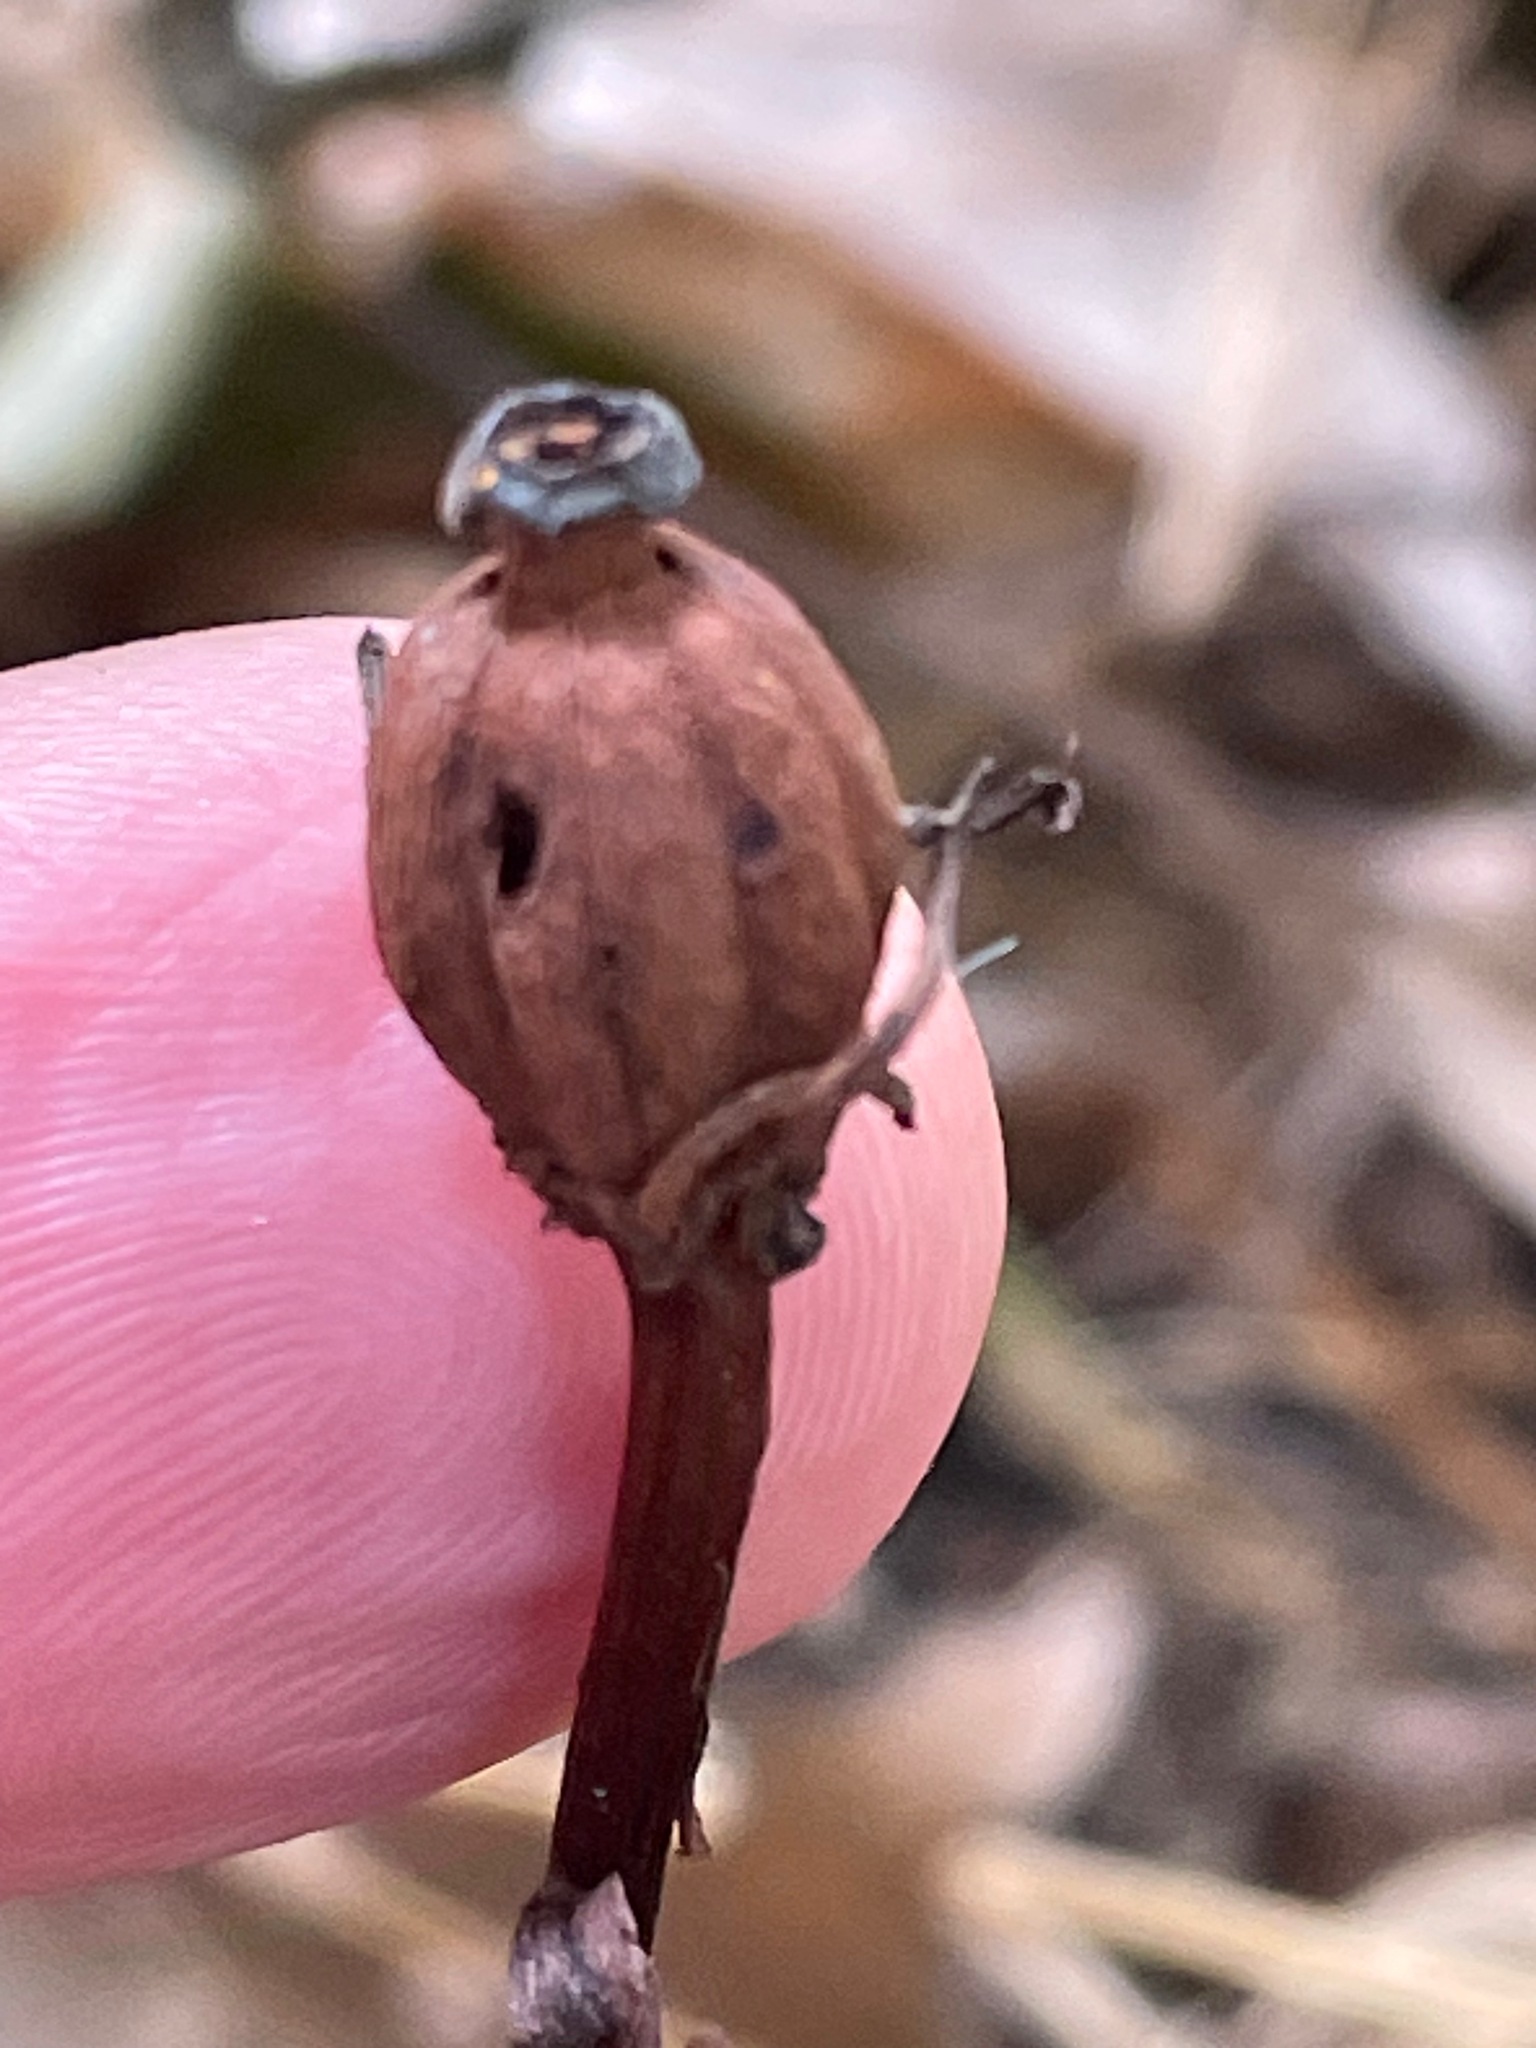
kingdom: Plantae
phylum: Tracheophyta
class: Magnoliopsida
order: Ericales
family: Ericaceae
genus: Monotropa
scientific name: Monotropa uniflora
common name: Convulsion root
